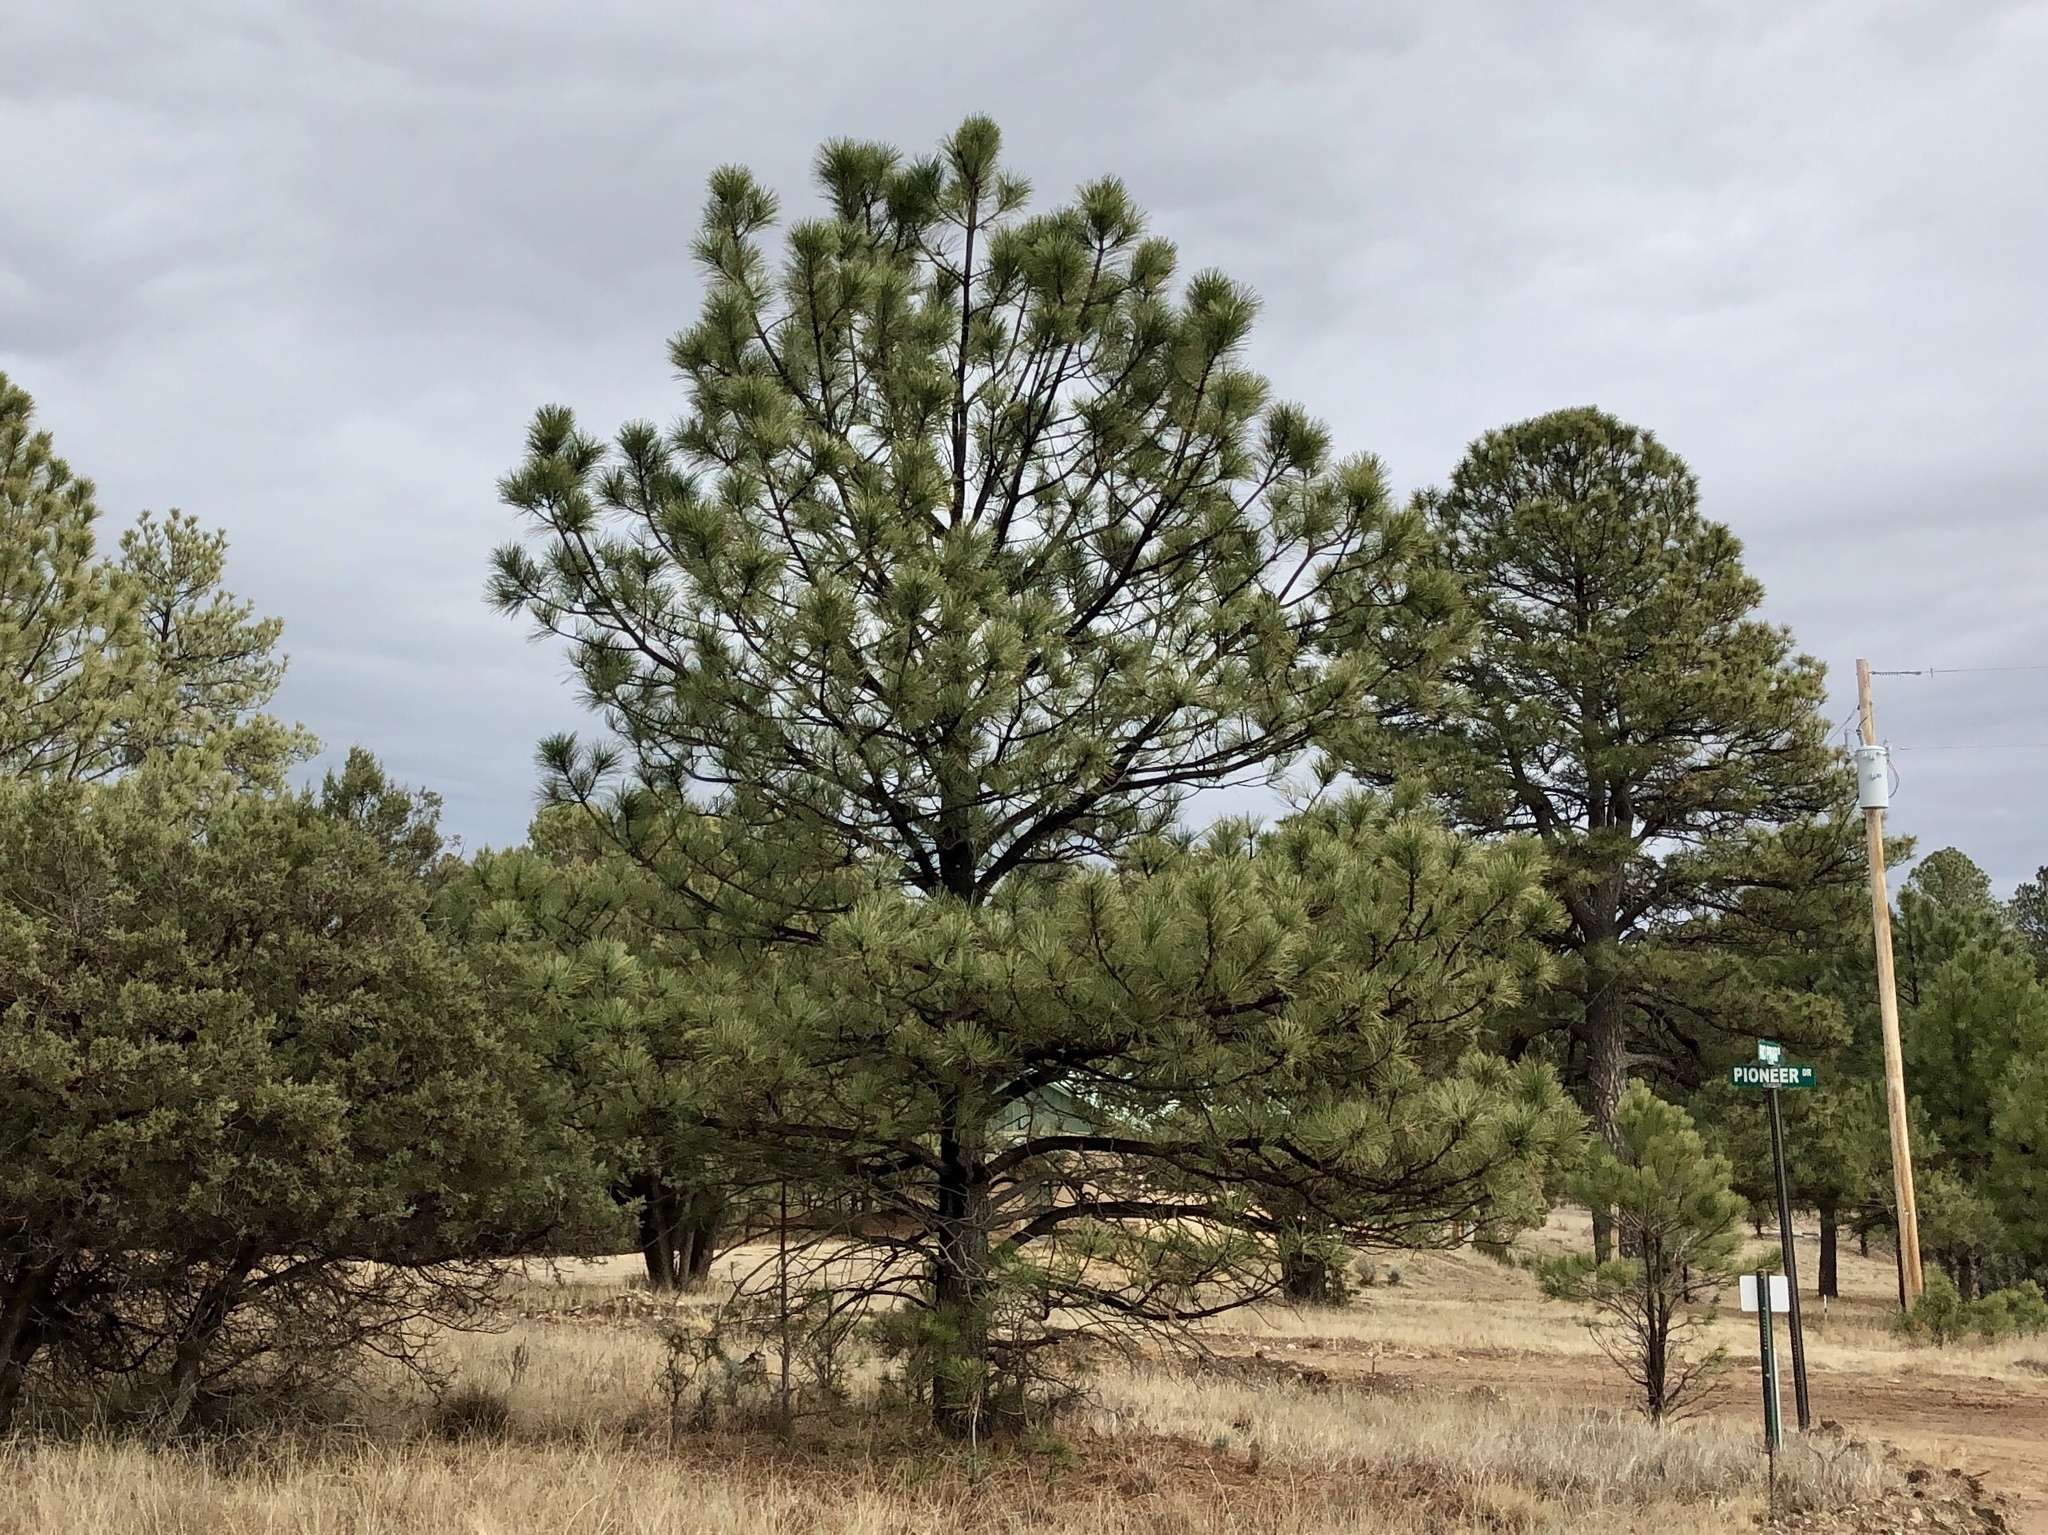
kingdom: Plantae
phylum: Tracheophyta
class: Pinopsida
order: Pinales
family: Pinaceae
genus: Pinus
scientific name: Pinus ponderosa
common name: Western yellow-pine
